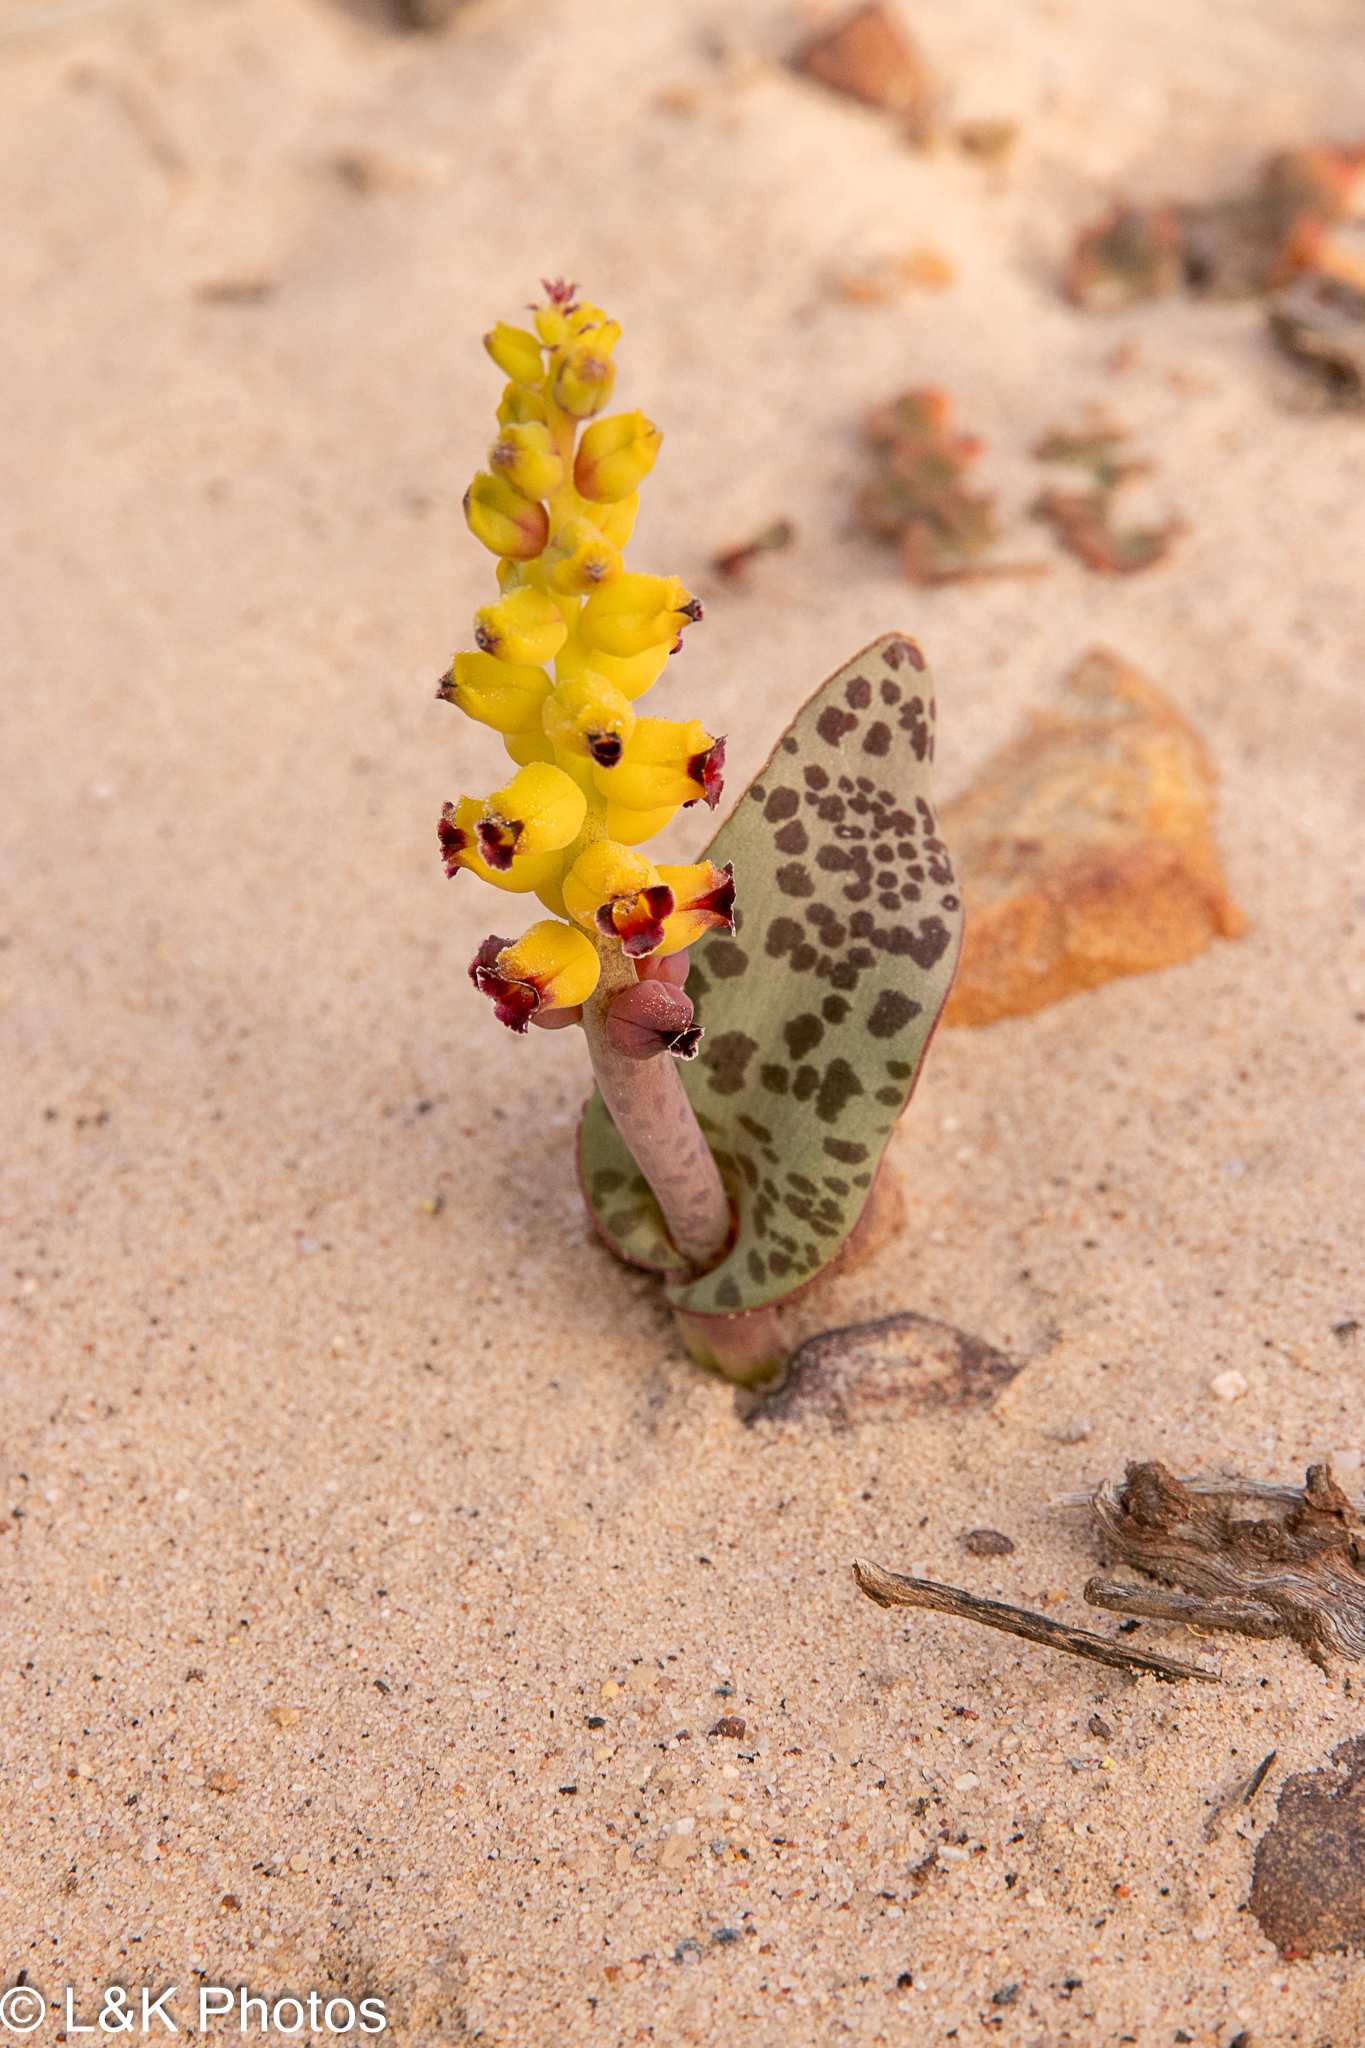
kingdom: Plantae
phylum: Tracheophyta
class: Liliopsida
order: Asparagales
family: Asparagaceae
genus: Lachenalia
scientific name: Lachenalia karoopoortensis
